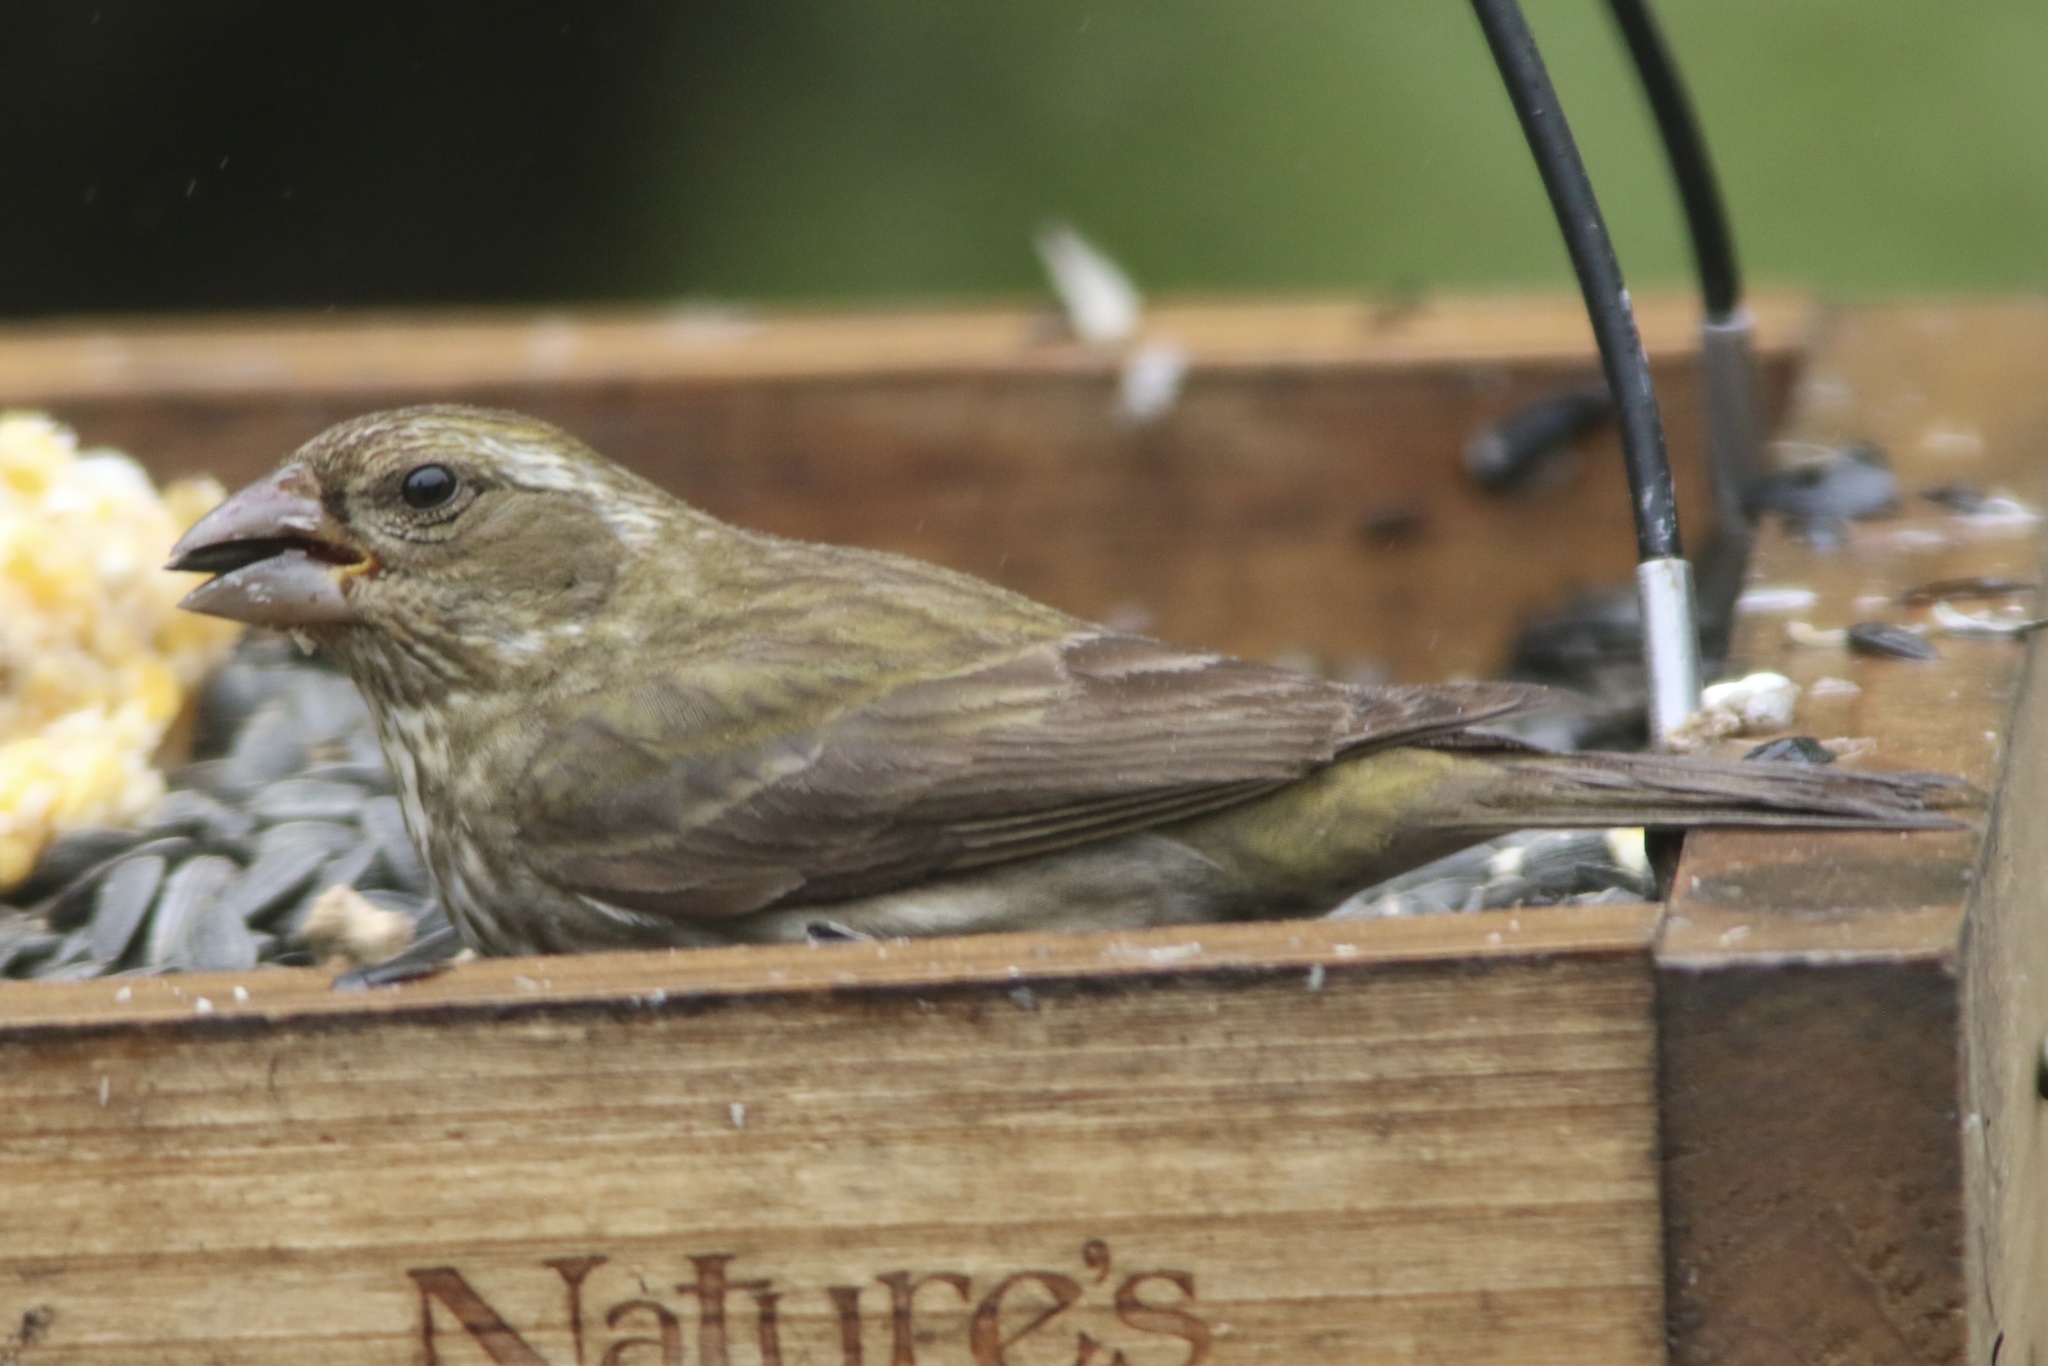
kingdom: Animalia
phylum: Chordata
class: Aves
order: Passeriformes
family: Fringillidae
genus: Haemorhous
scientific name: Haemorhous purpureus
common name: Purple finch
